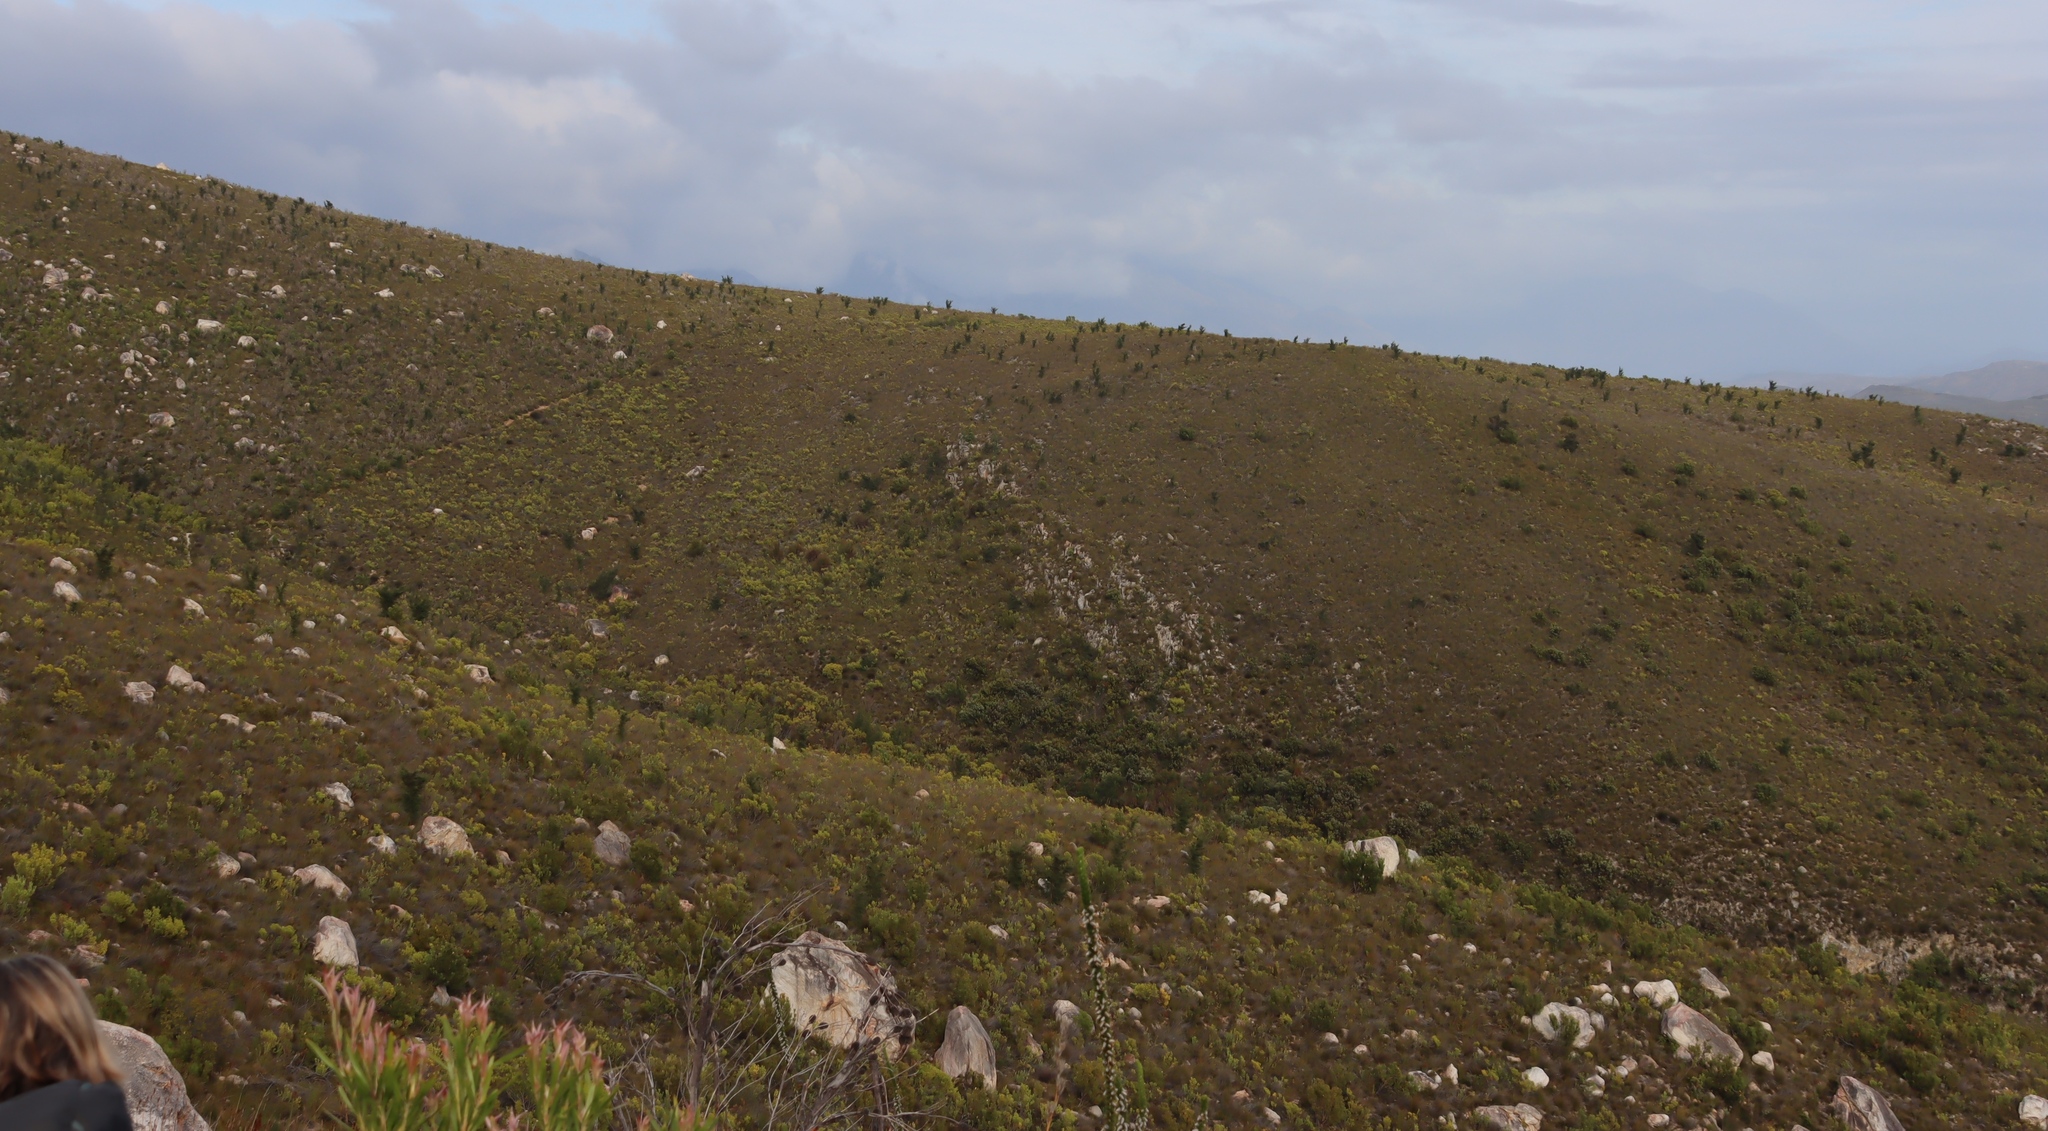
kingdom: Plantae
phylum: Tracheophyta
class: Magnoliopsida
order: Proteales
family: Proteaceae
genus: Hakea
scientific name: Hakea sericea
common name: Needle bush
